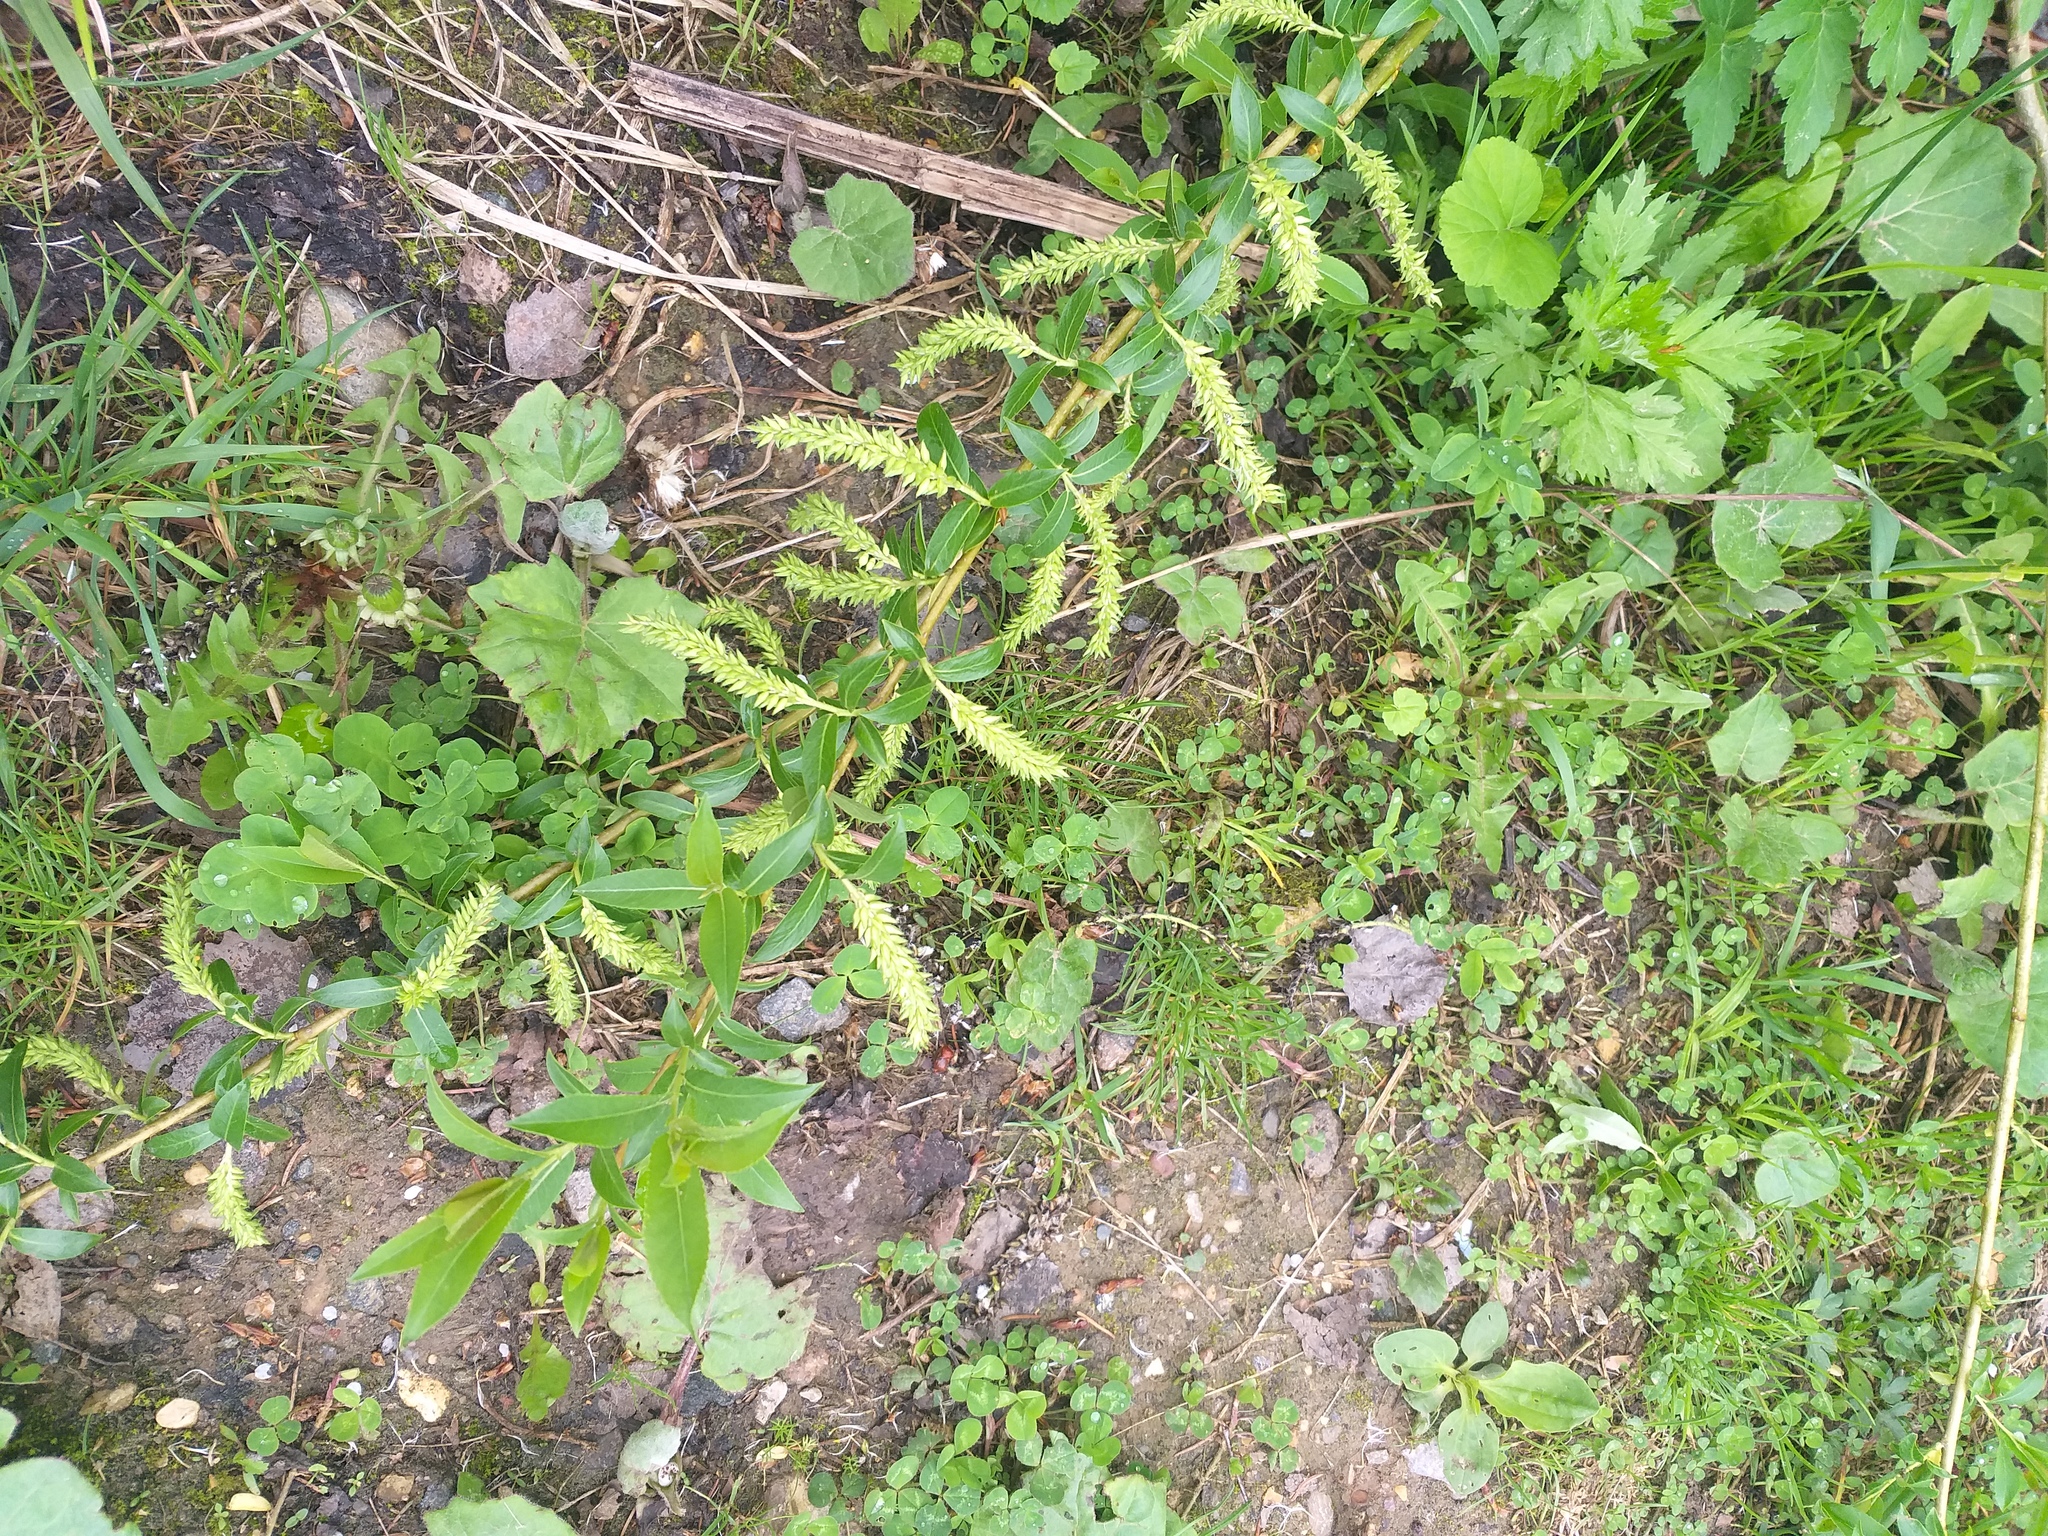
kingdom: Plantae
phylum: Tracheophyta
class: Magnoliopsida
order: Malpighiales
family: Salicaceae
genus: Salix
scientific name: Salix triandra
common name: Almond willow
